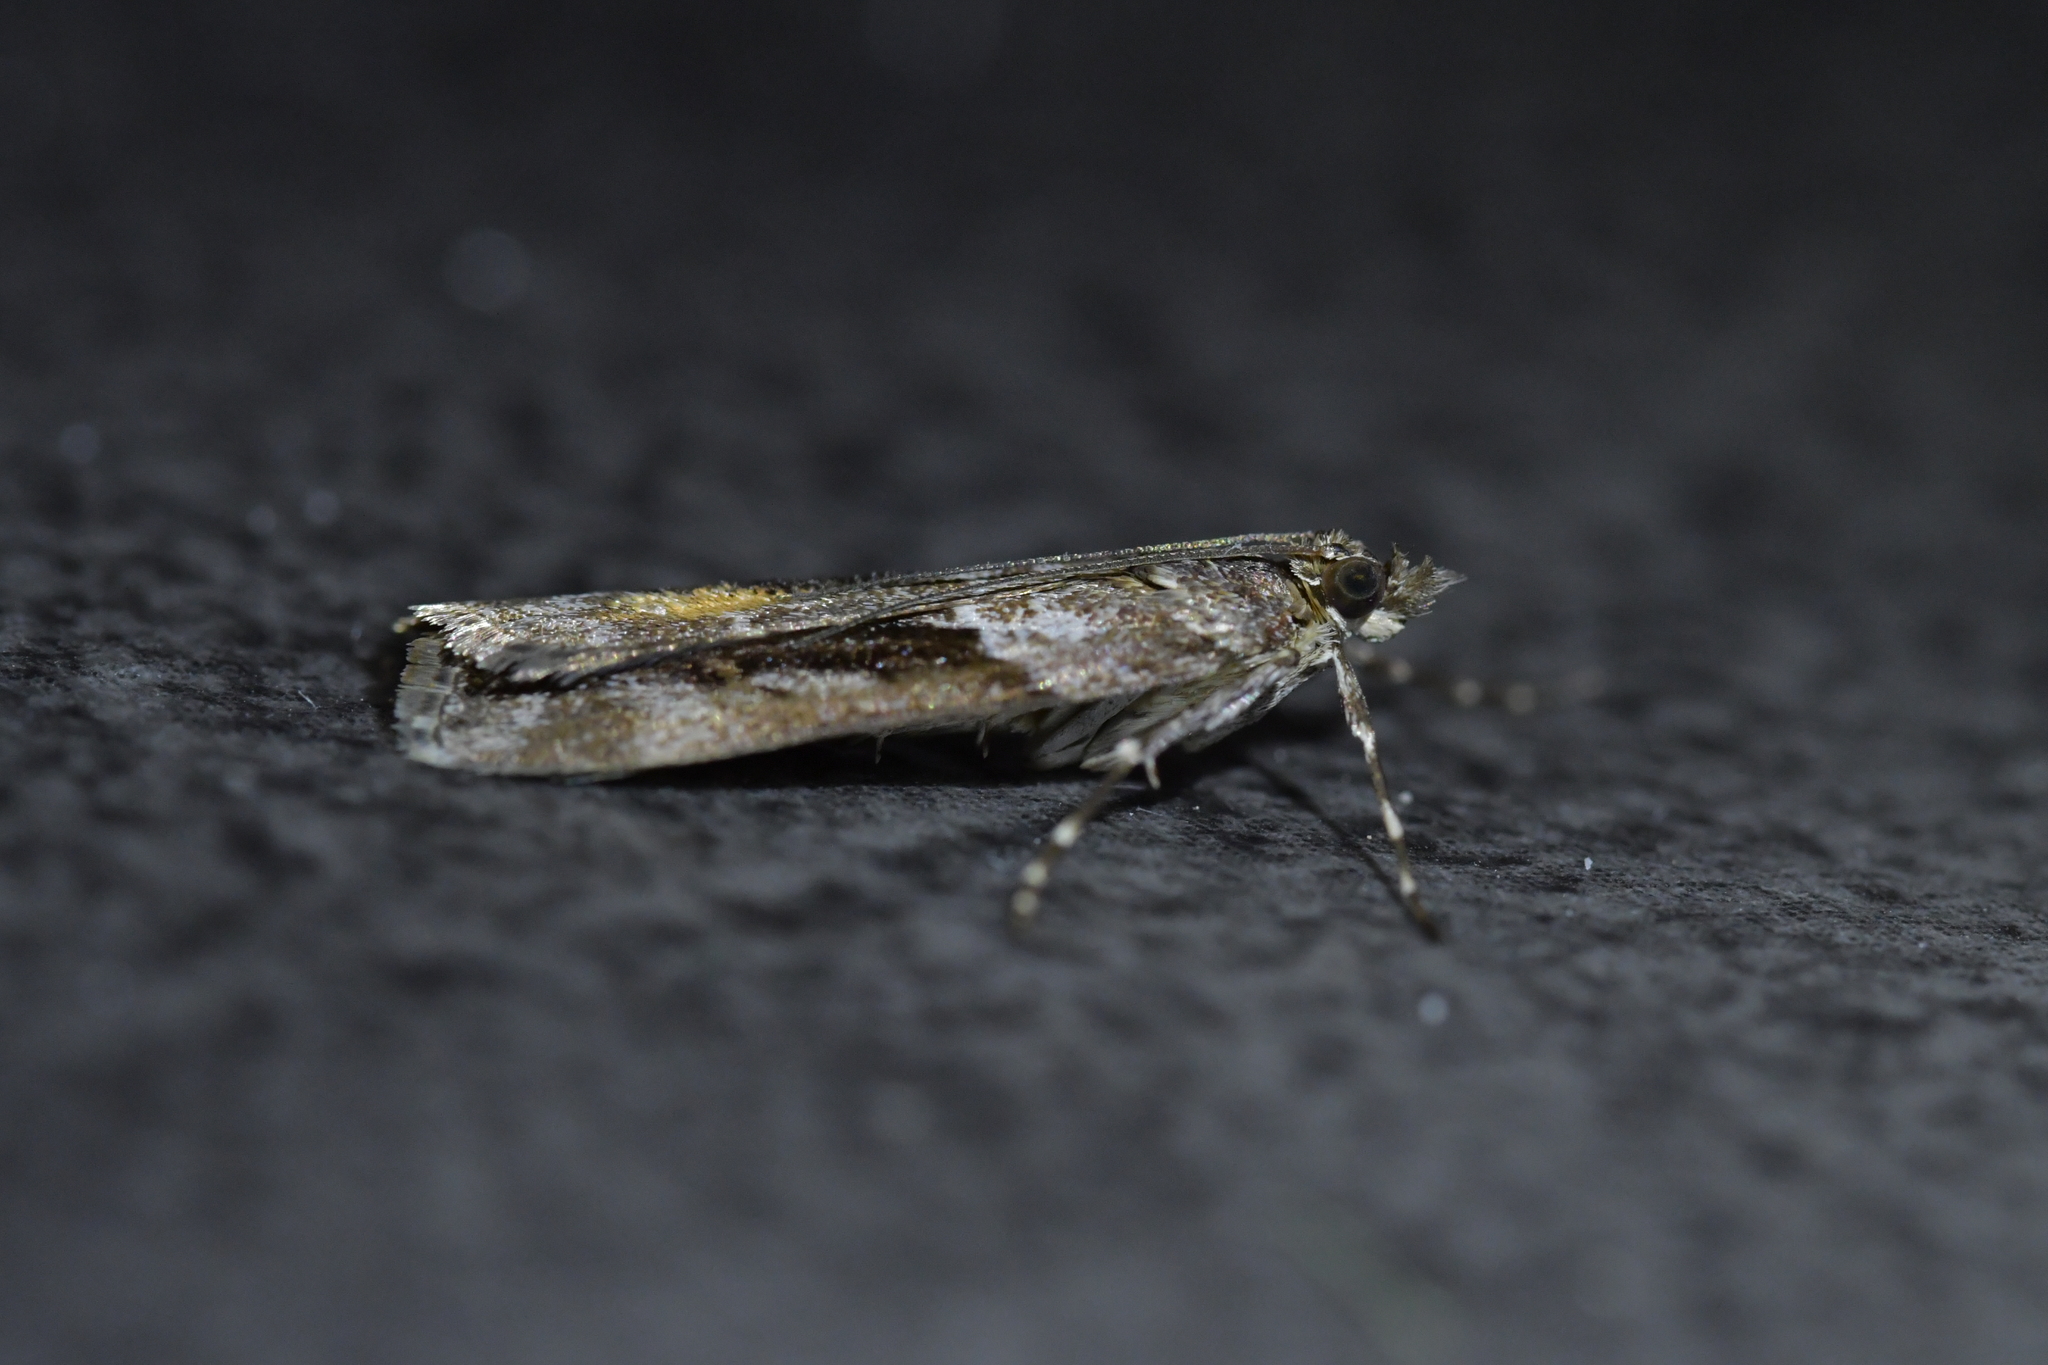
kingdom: Animalia
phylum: Arthropoda
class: Insecta
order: Lepidoptera
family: Crambidae
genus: Eudonia
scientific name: Eudonia submarginalis
